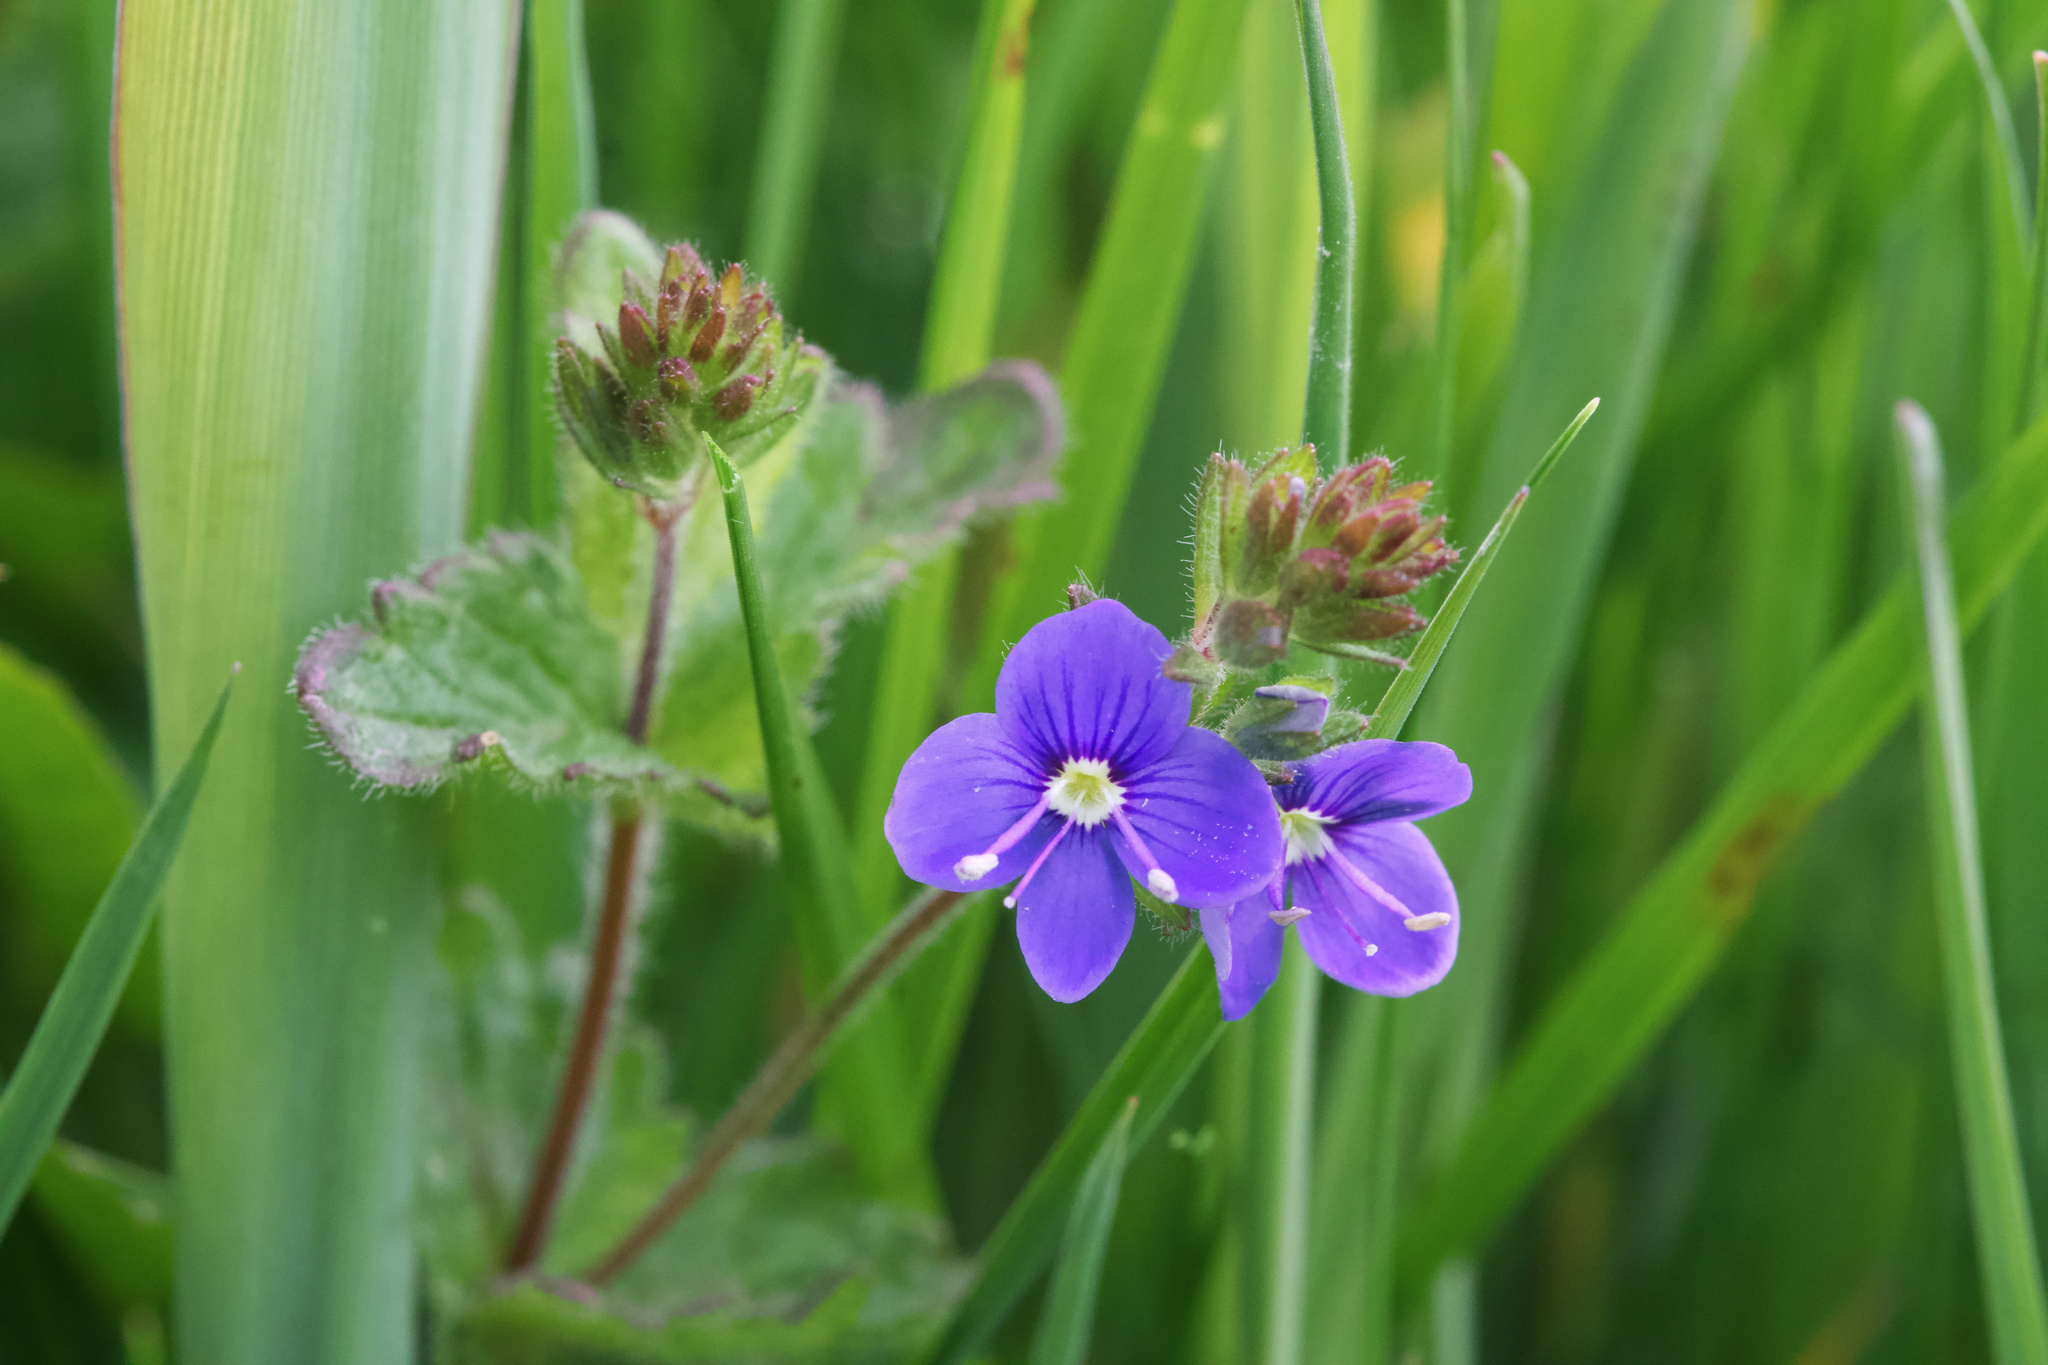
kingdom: Plantae
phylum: Tracheophyta
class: Magnoliopsida
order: Lamiales
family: Plantaginaceae
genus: Veronica
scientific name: Veronica chamaedrys
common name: Germander speedwell
